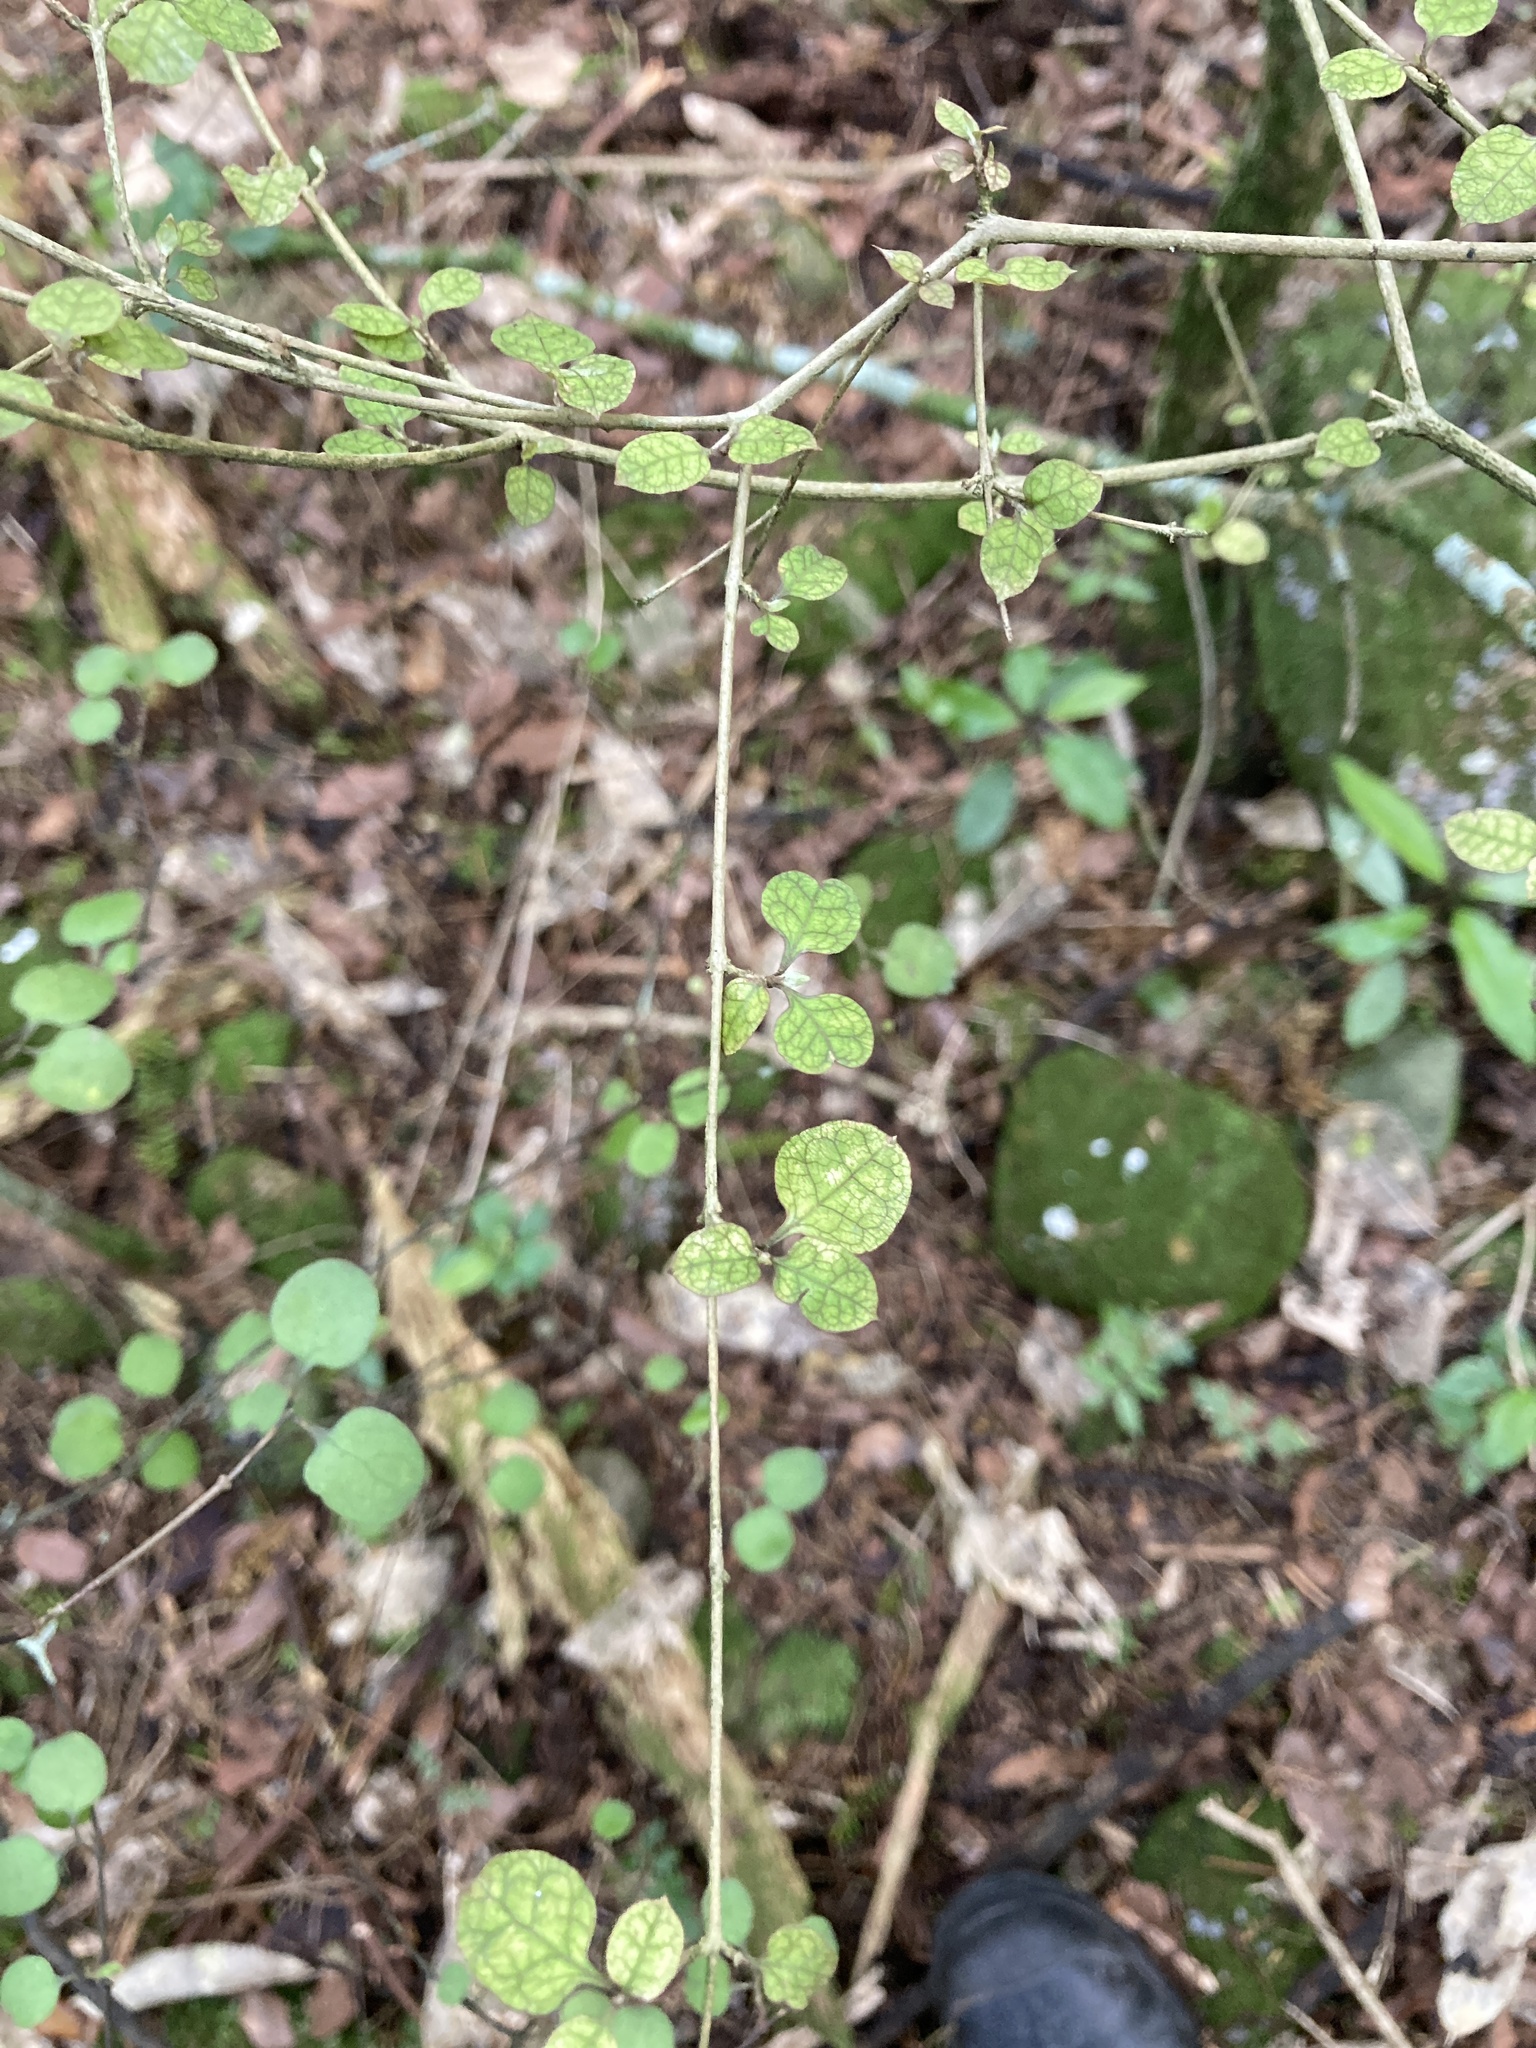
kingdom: Plantae
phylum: Tracheophyta
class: Magnoliopsida
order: Gentianales
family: Rubiaceae
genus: Coprosma
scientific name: Coprosma areolata
